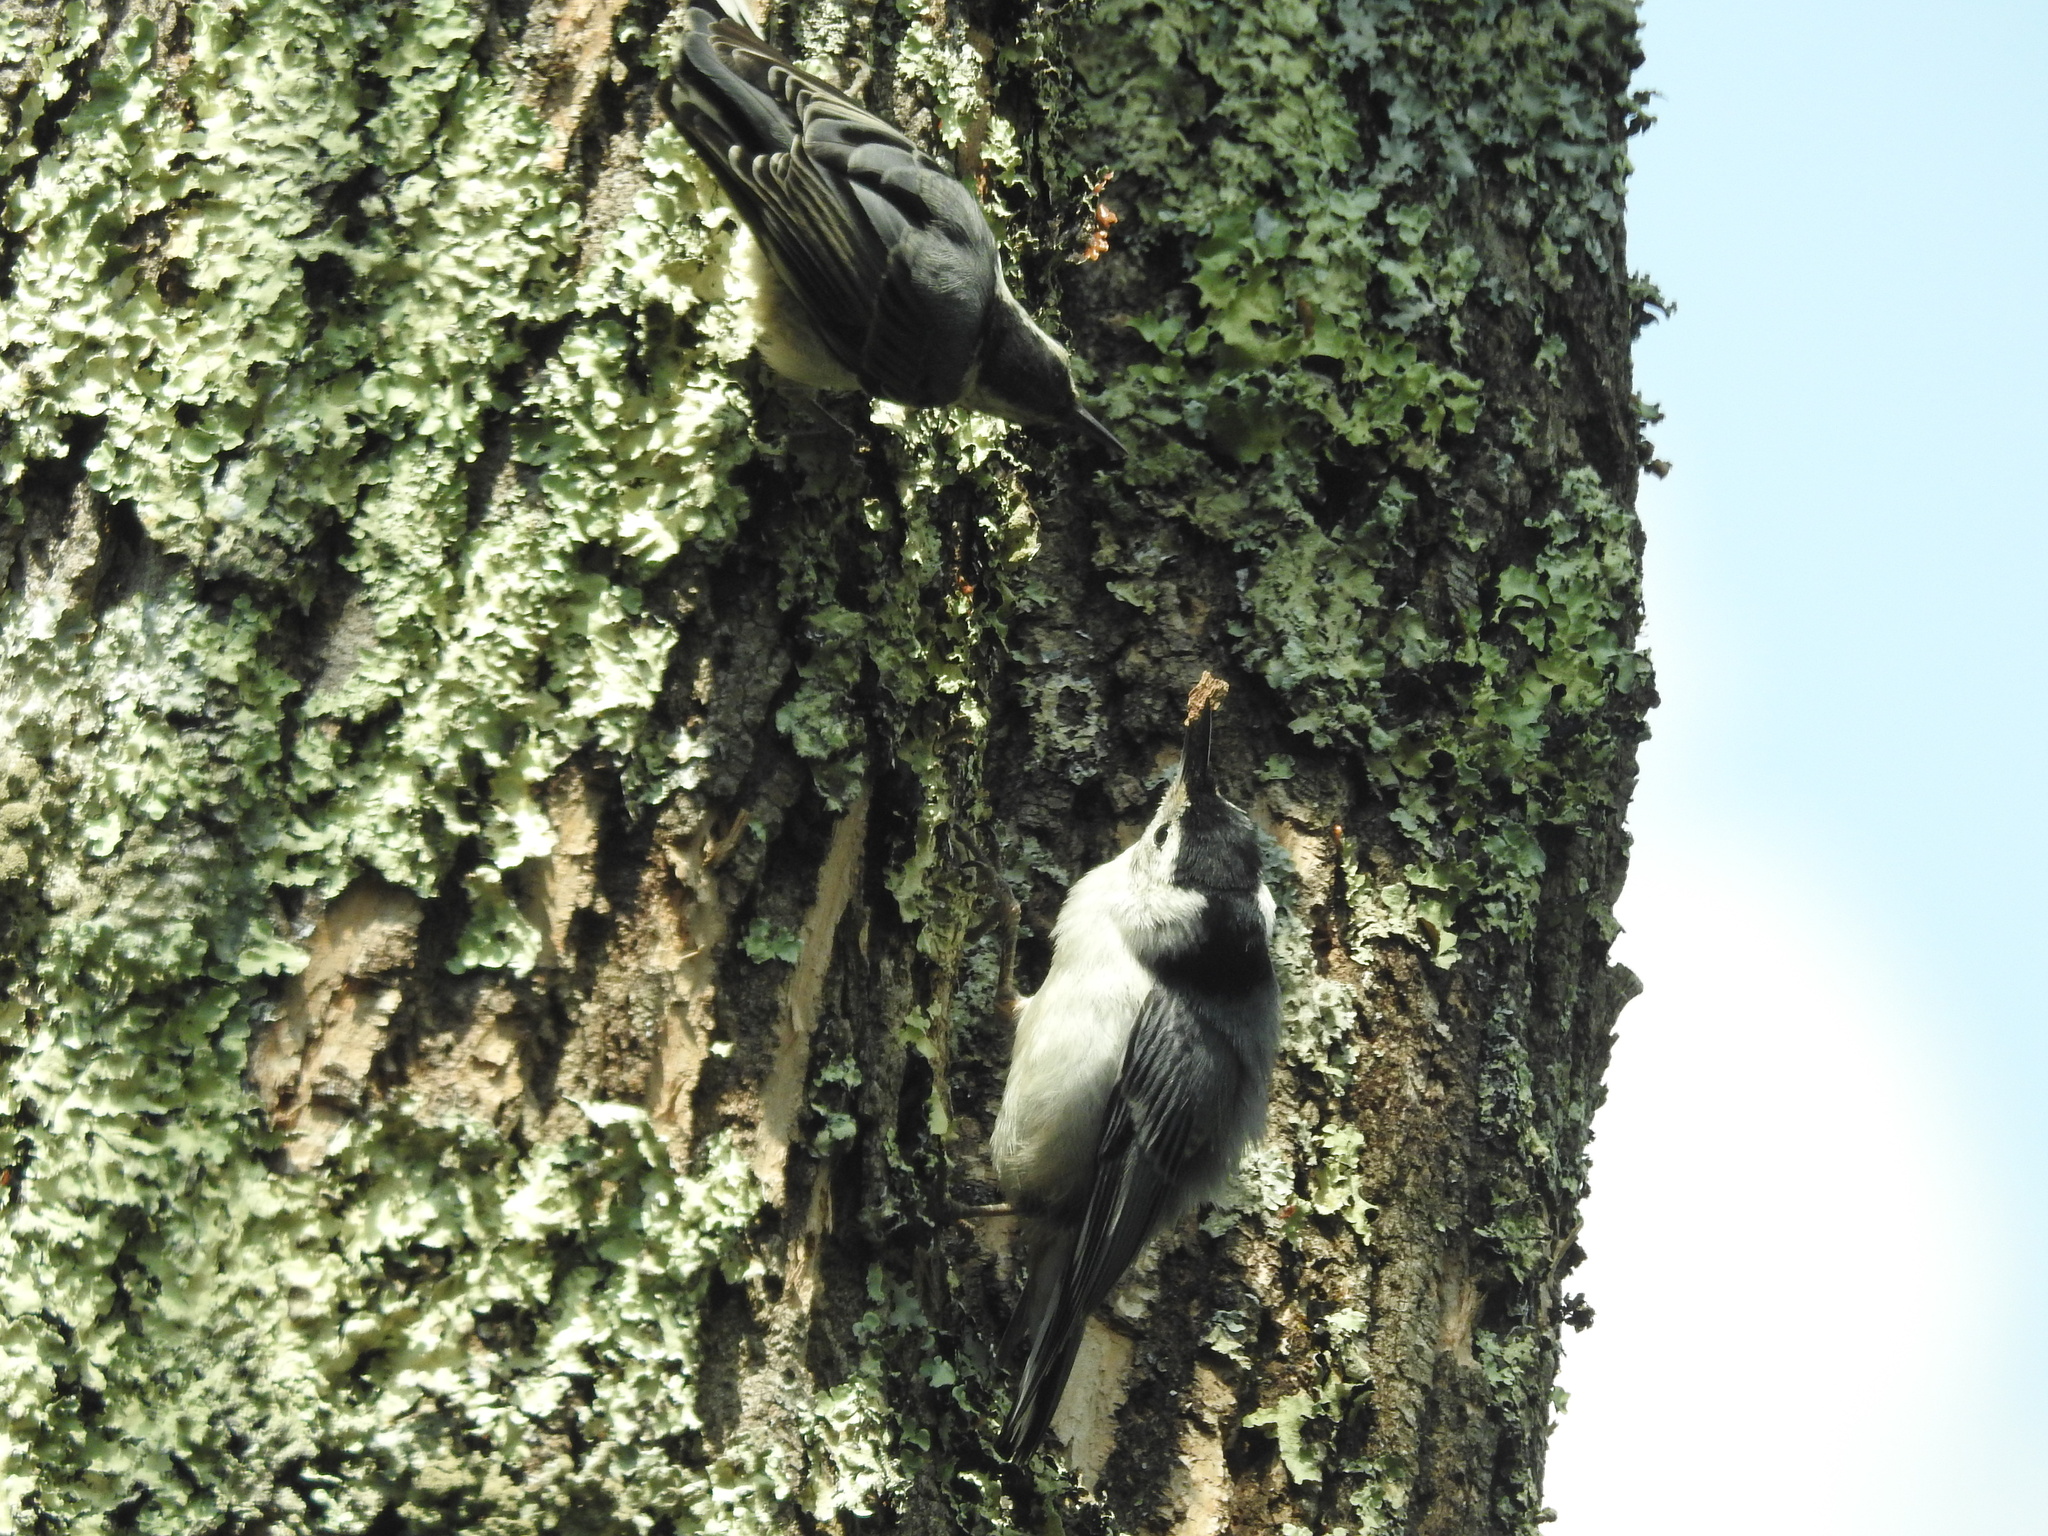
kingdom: Animalia
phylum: Chordata
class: Aves
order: Passeriformes
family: Sittidae
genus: Sitta
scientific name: Sitta carolinensis
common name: White-breasted nuthatch
